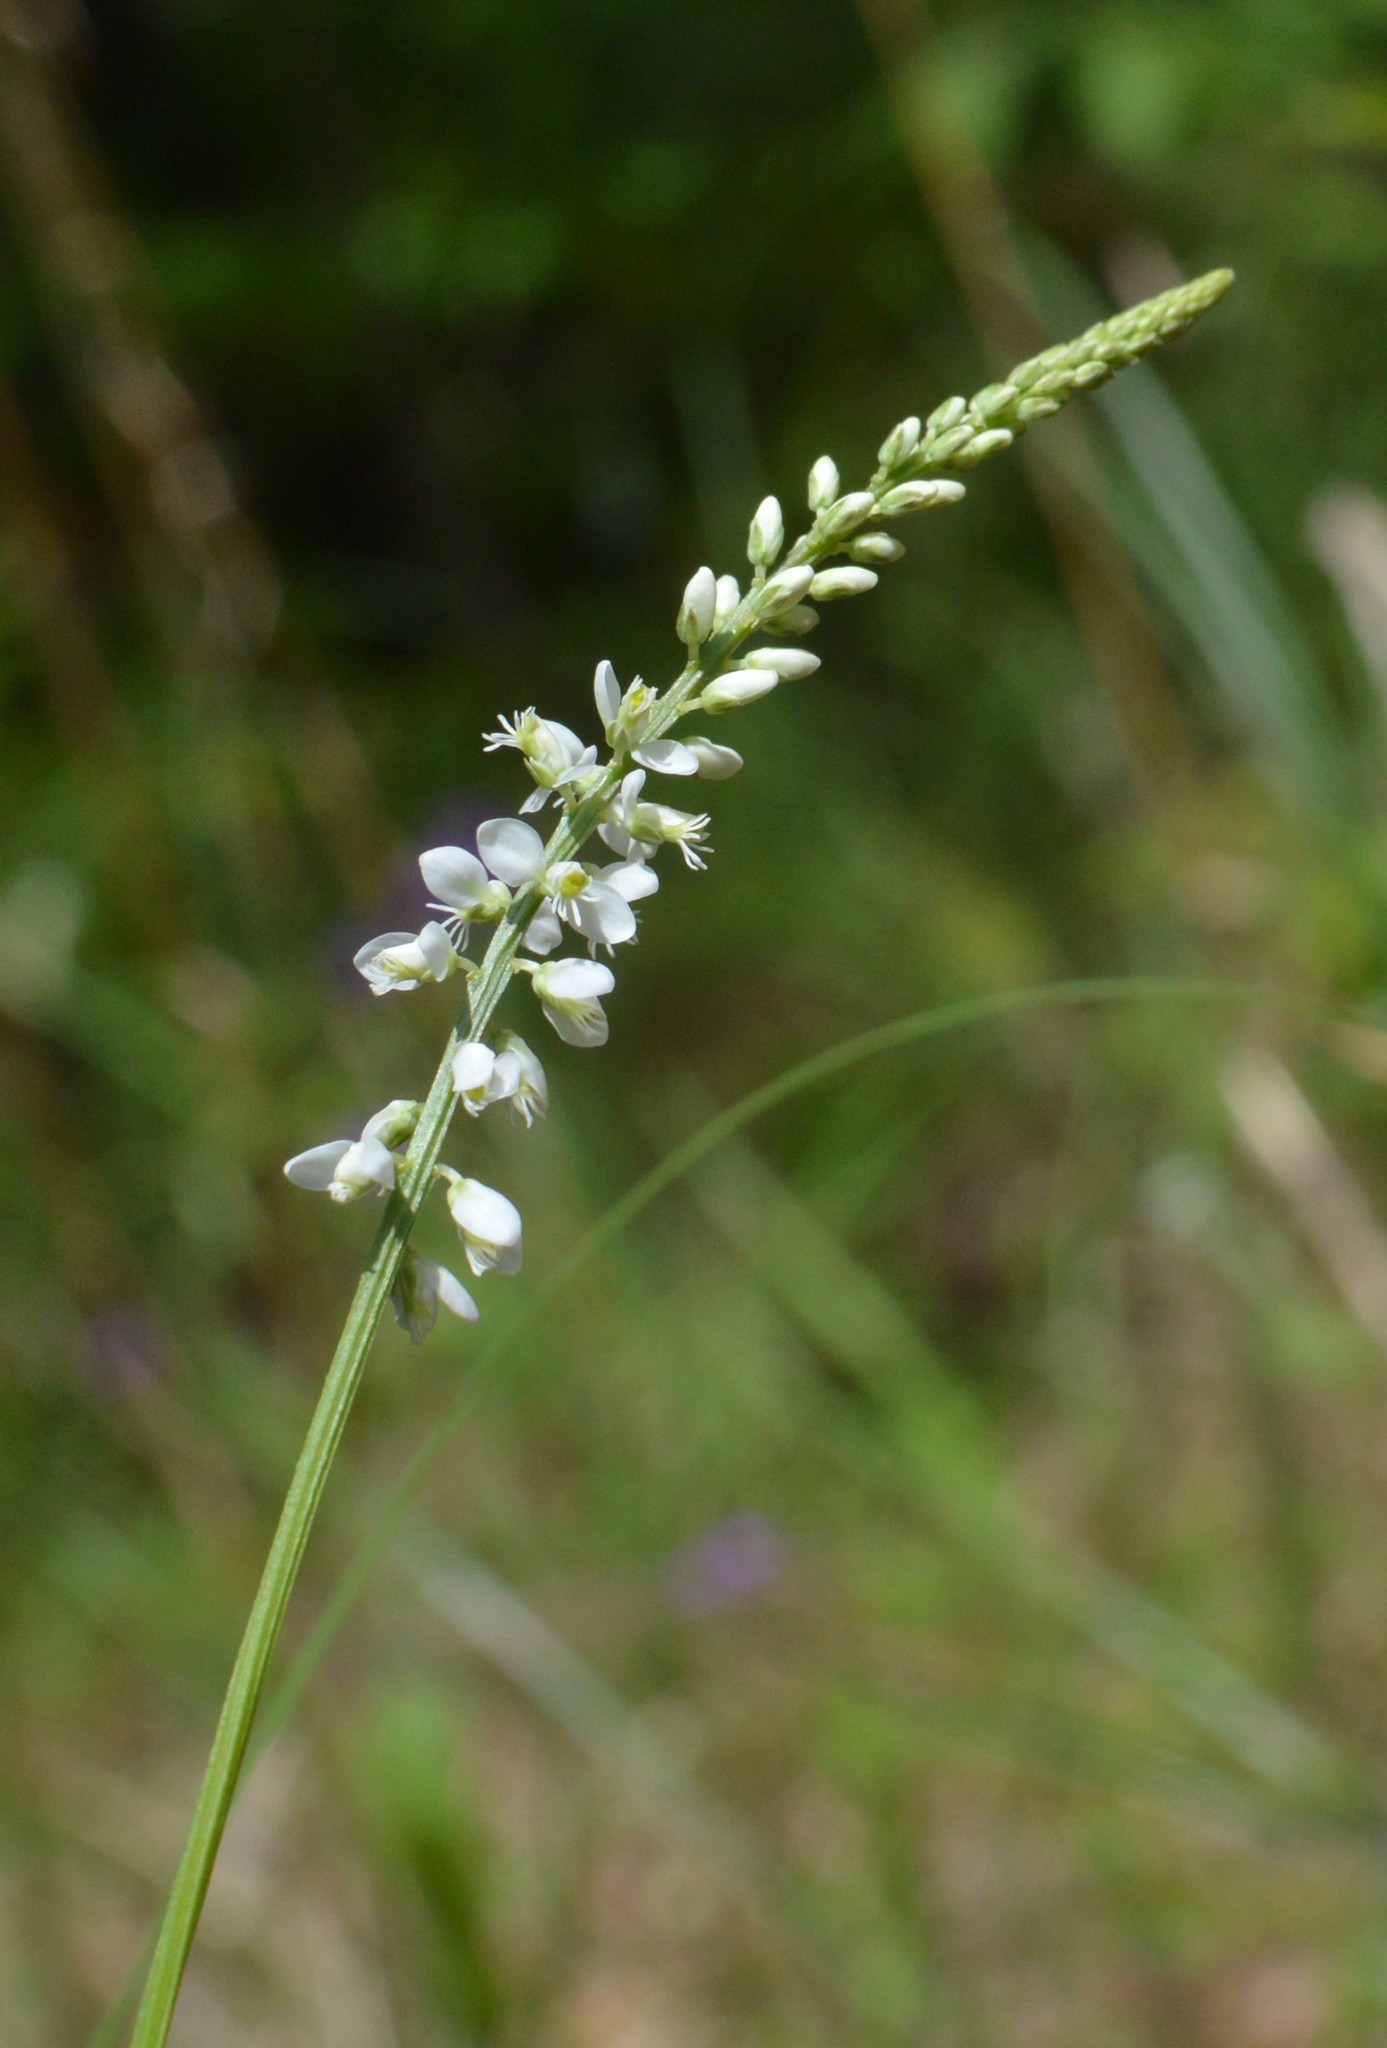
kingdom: Plantae
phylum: Tracheophyta
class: Magnoliopsida
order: Fabales
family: Polygalaceae
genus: Polygala
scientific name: Polygala boykinii
